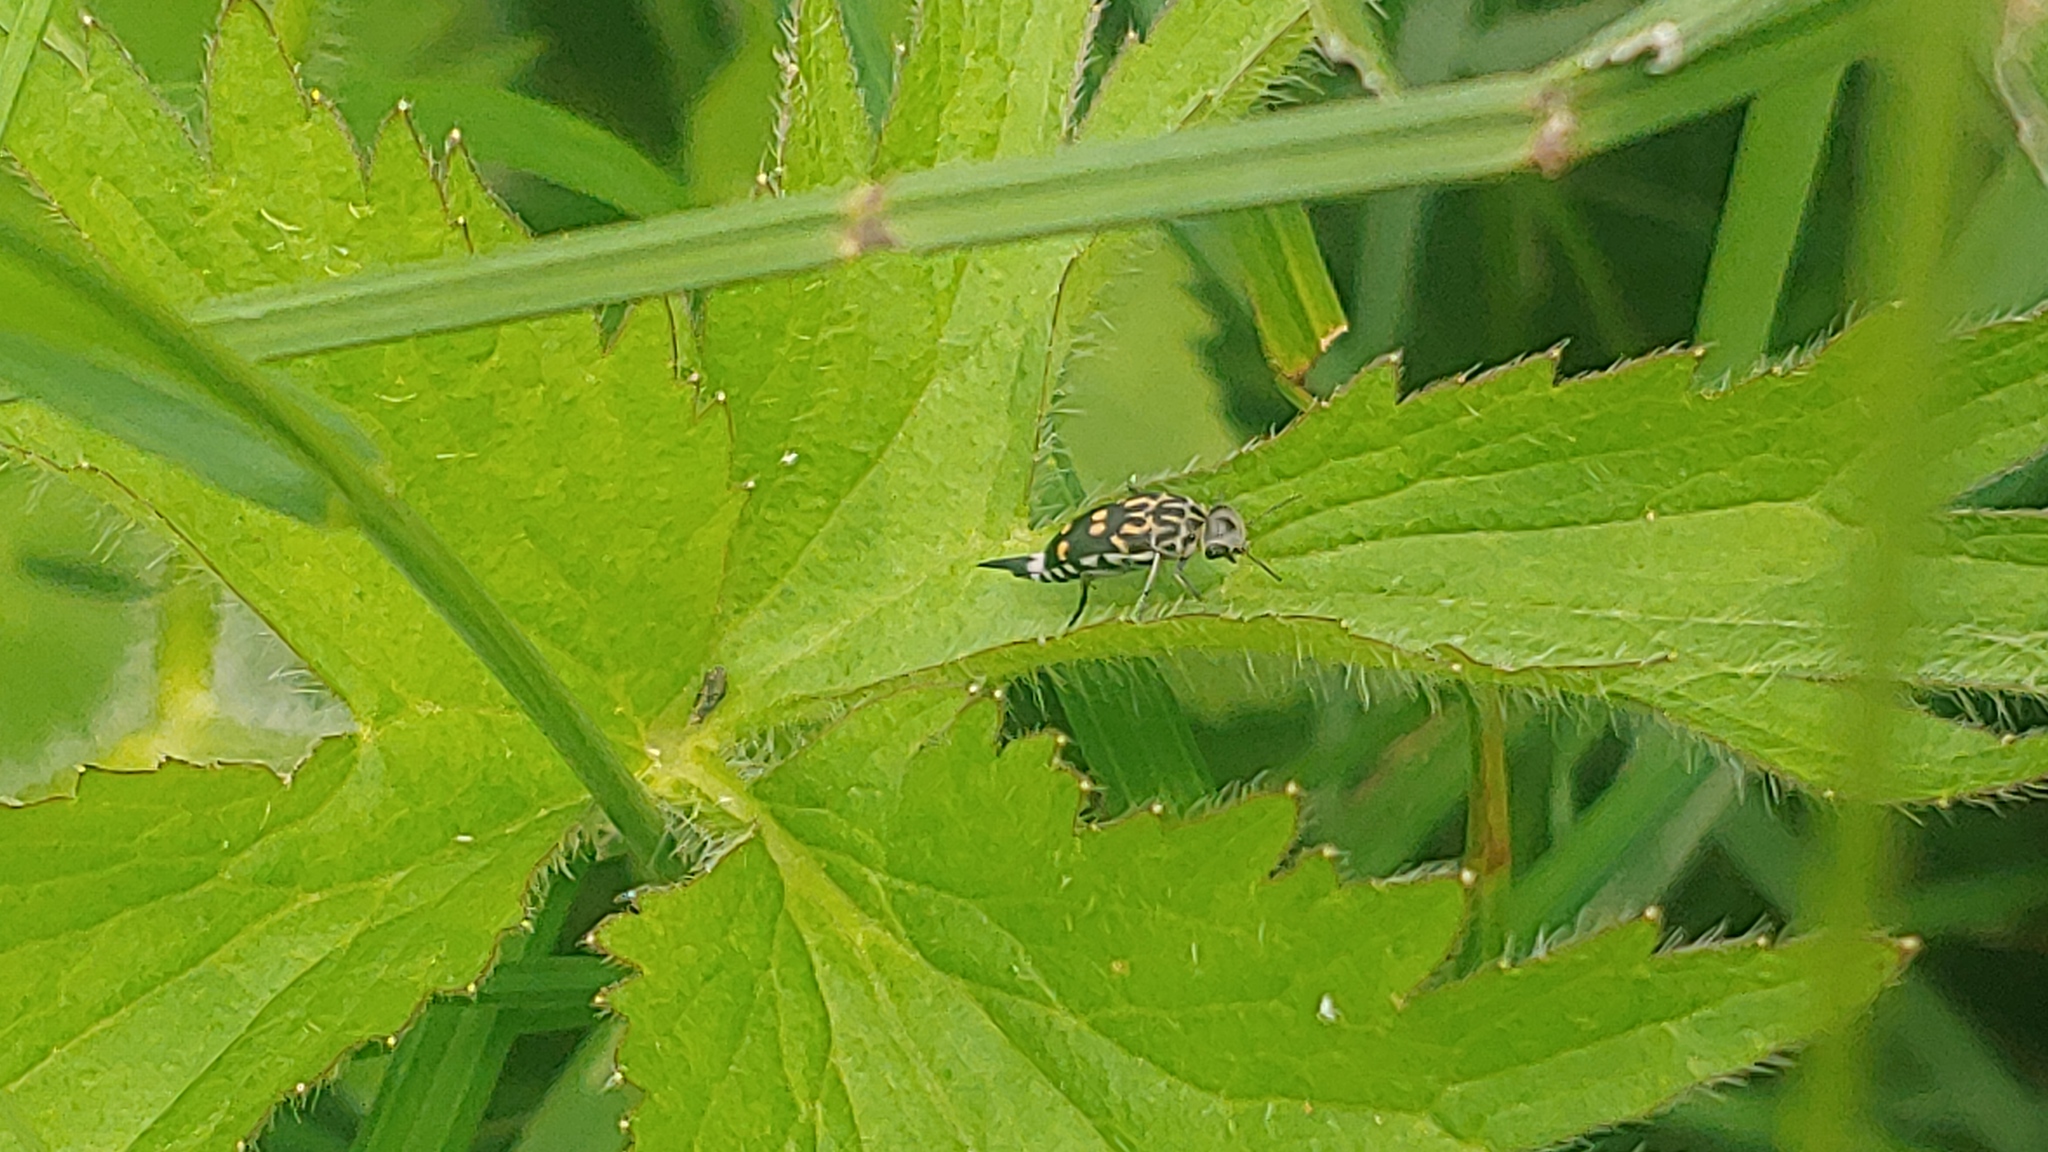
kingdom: Animalia
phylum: Arthropoda
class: Insecta
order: Coleoptera
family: Mordellidae
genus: Hoshihananomia
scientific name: Hoshihananomia octopunctata
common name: Eight-spotted tumbling flower beetle
